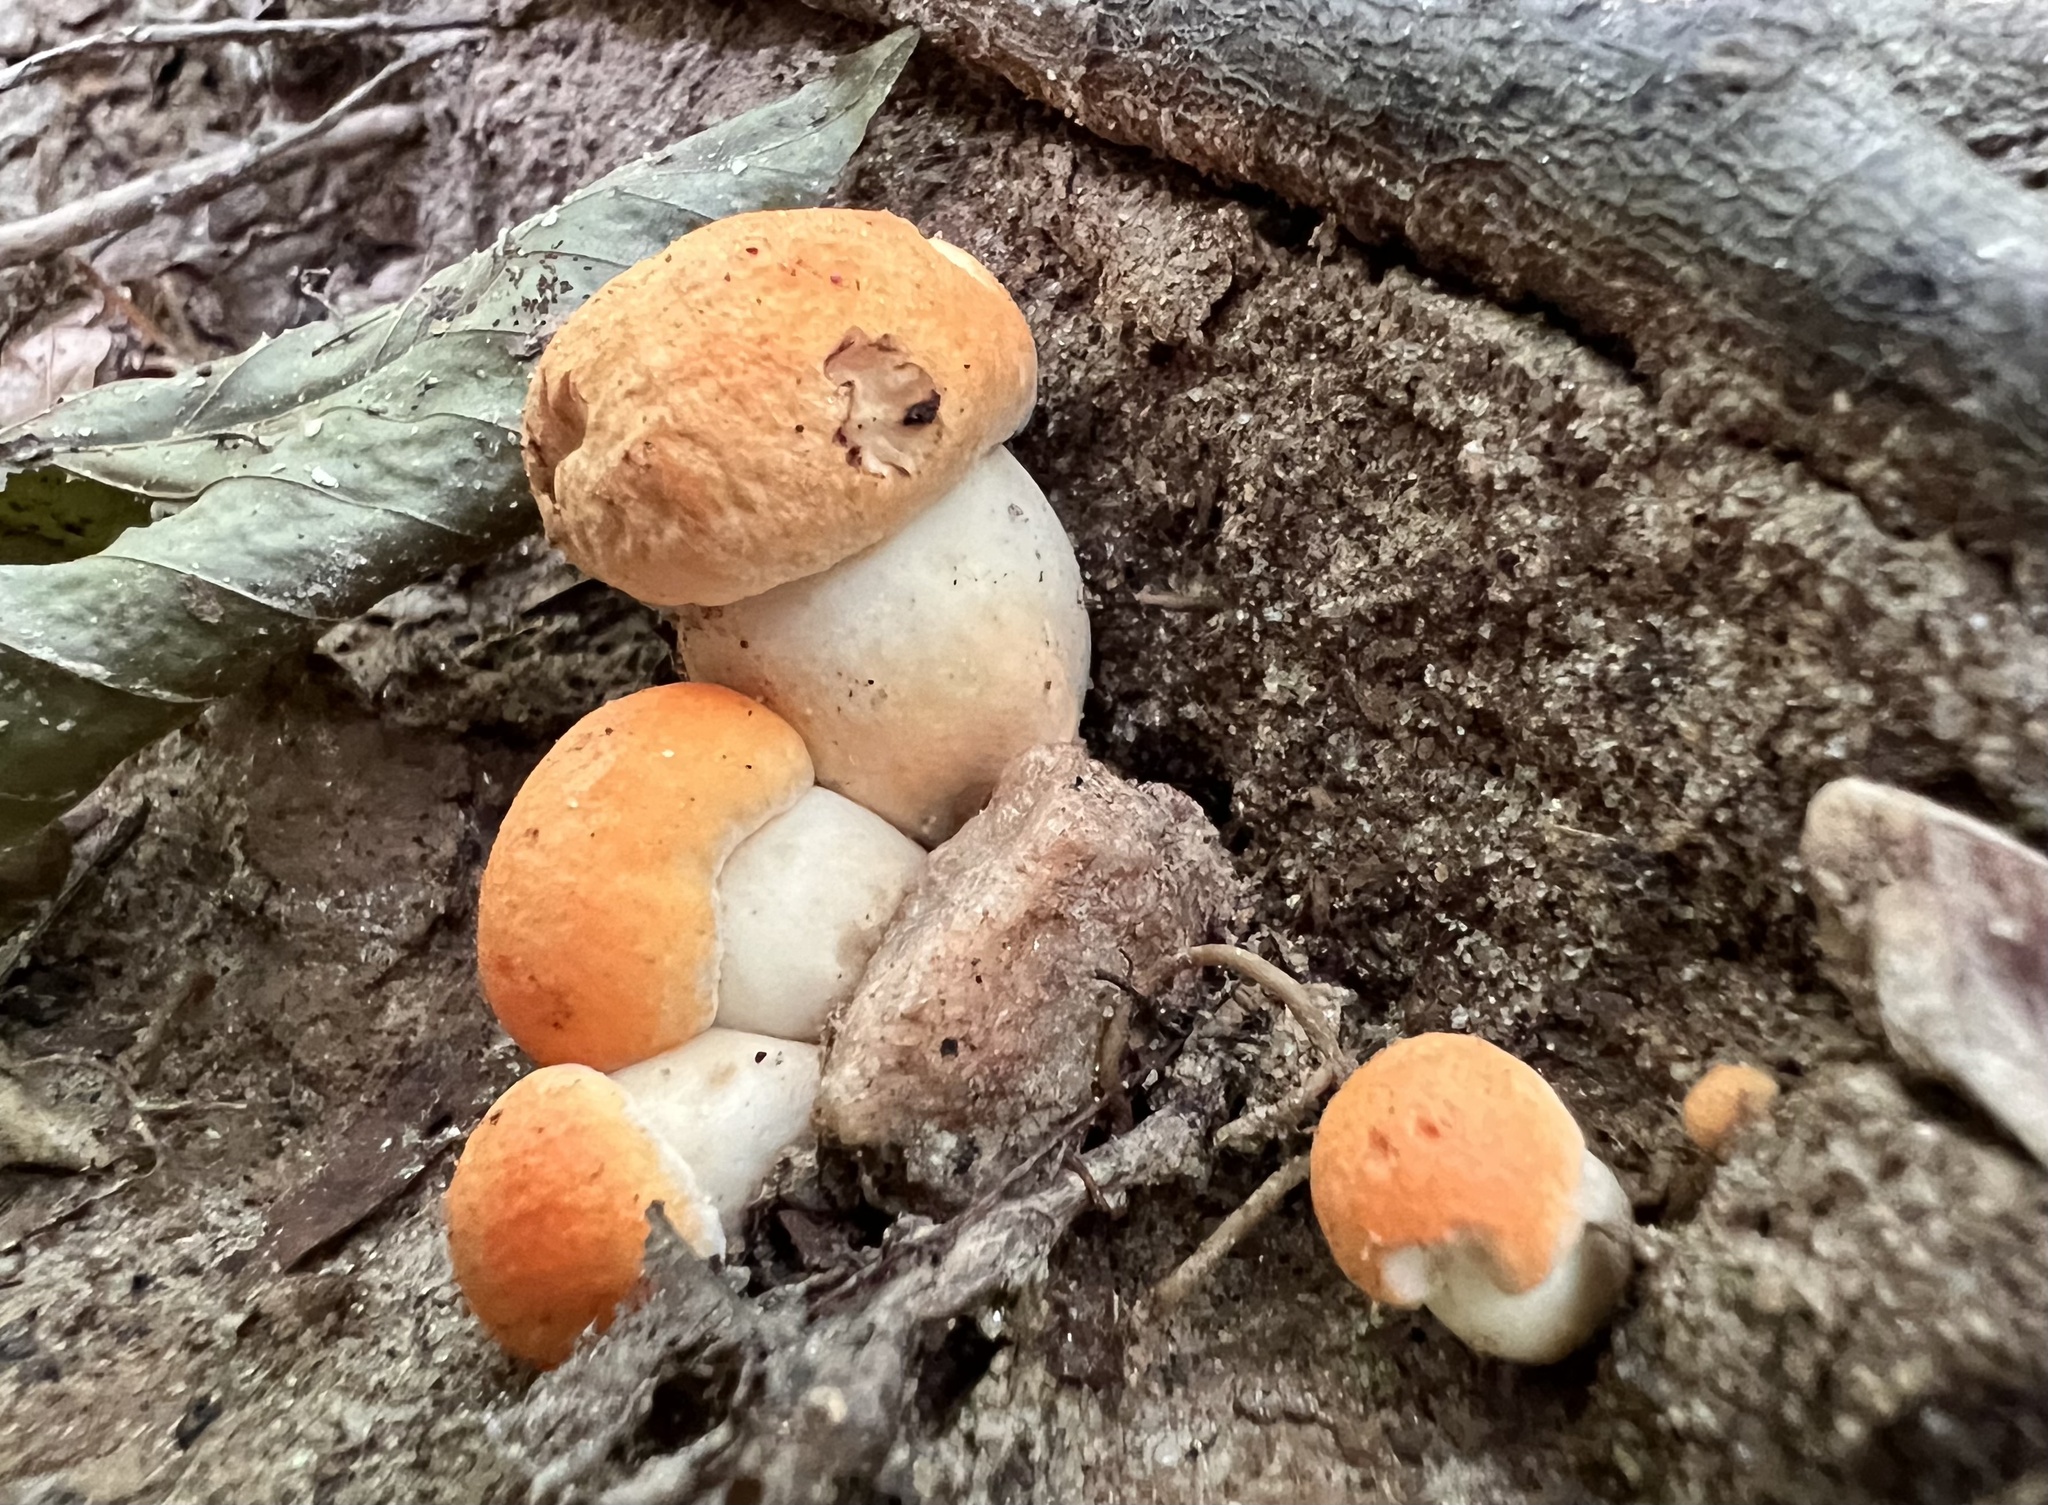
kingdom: Fungi
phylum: Basidiomycota
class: Agaricomycetes
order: Boletales
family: Boletaceae
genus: Tylopilus
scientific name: Tylopilus balloui
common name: Burnt-orange bolete
